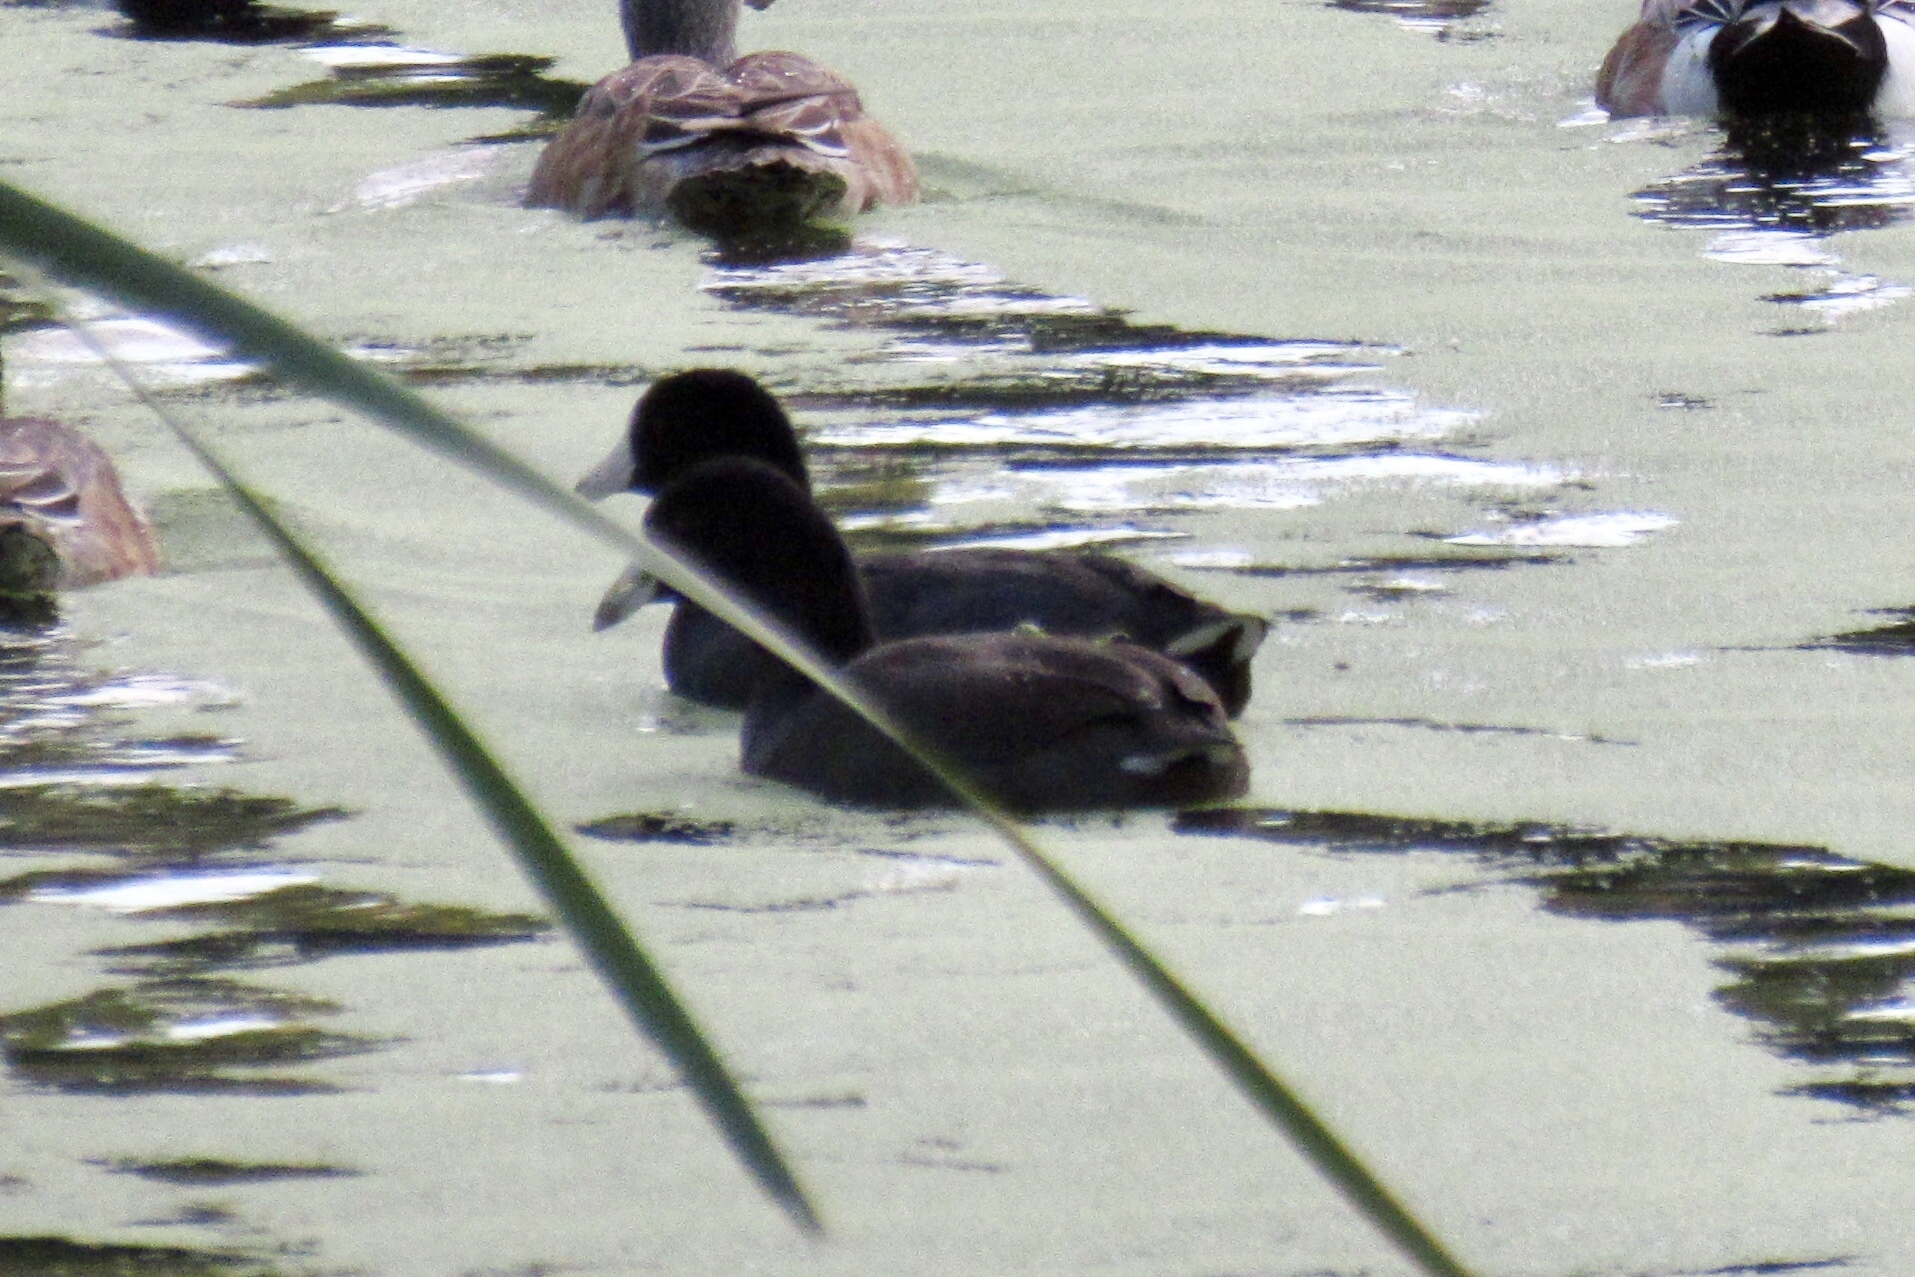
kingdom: Animalia
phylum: Chordata
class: Aves
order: Gruiformes
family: Rallidae
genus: Fulica
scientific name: Fulica americana
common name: American coot
